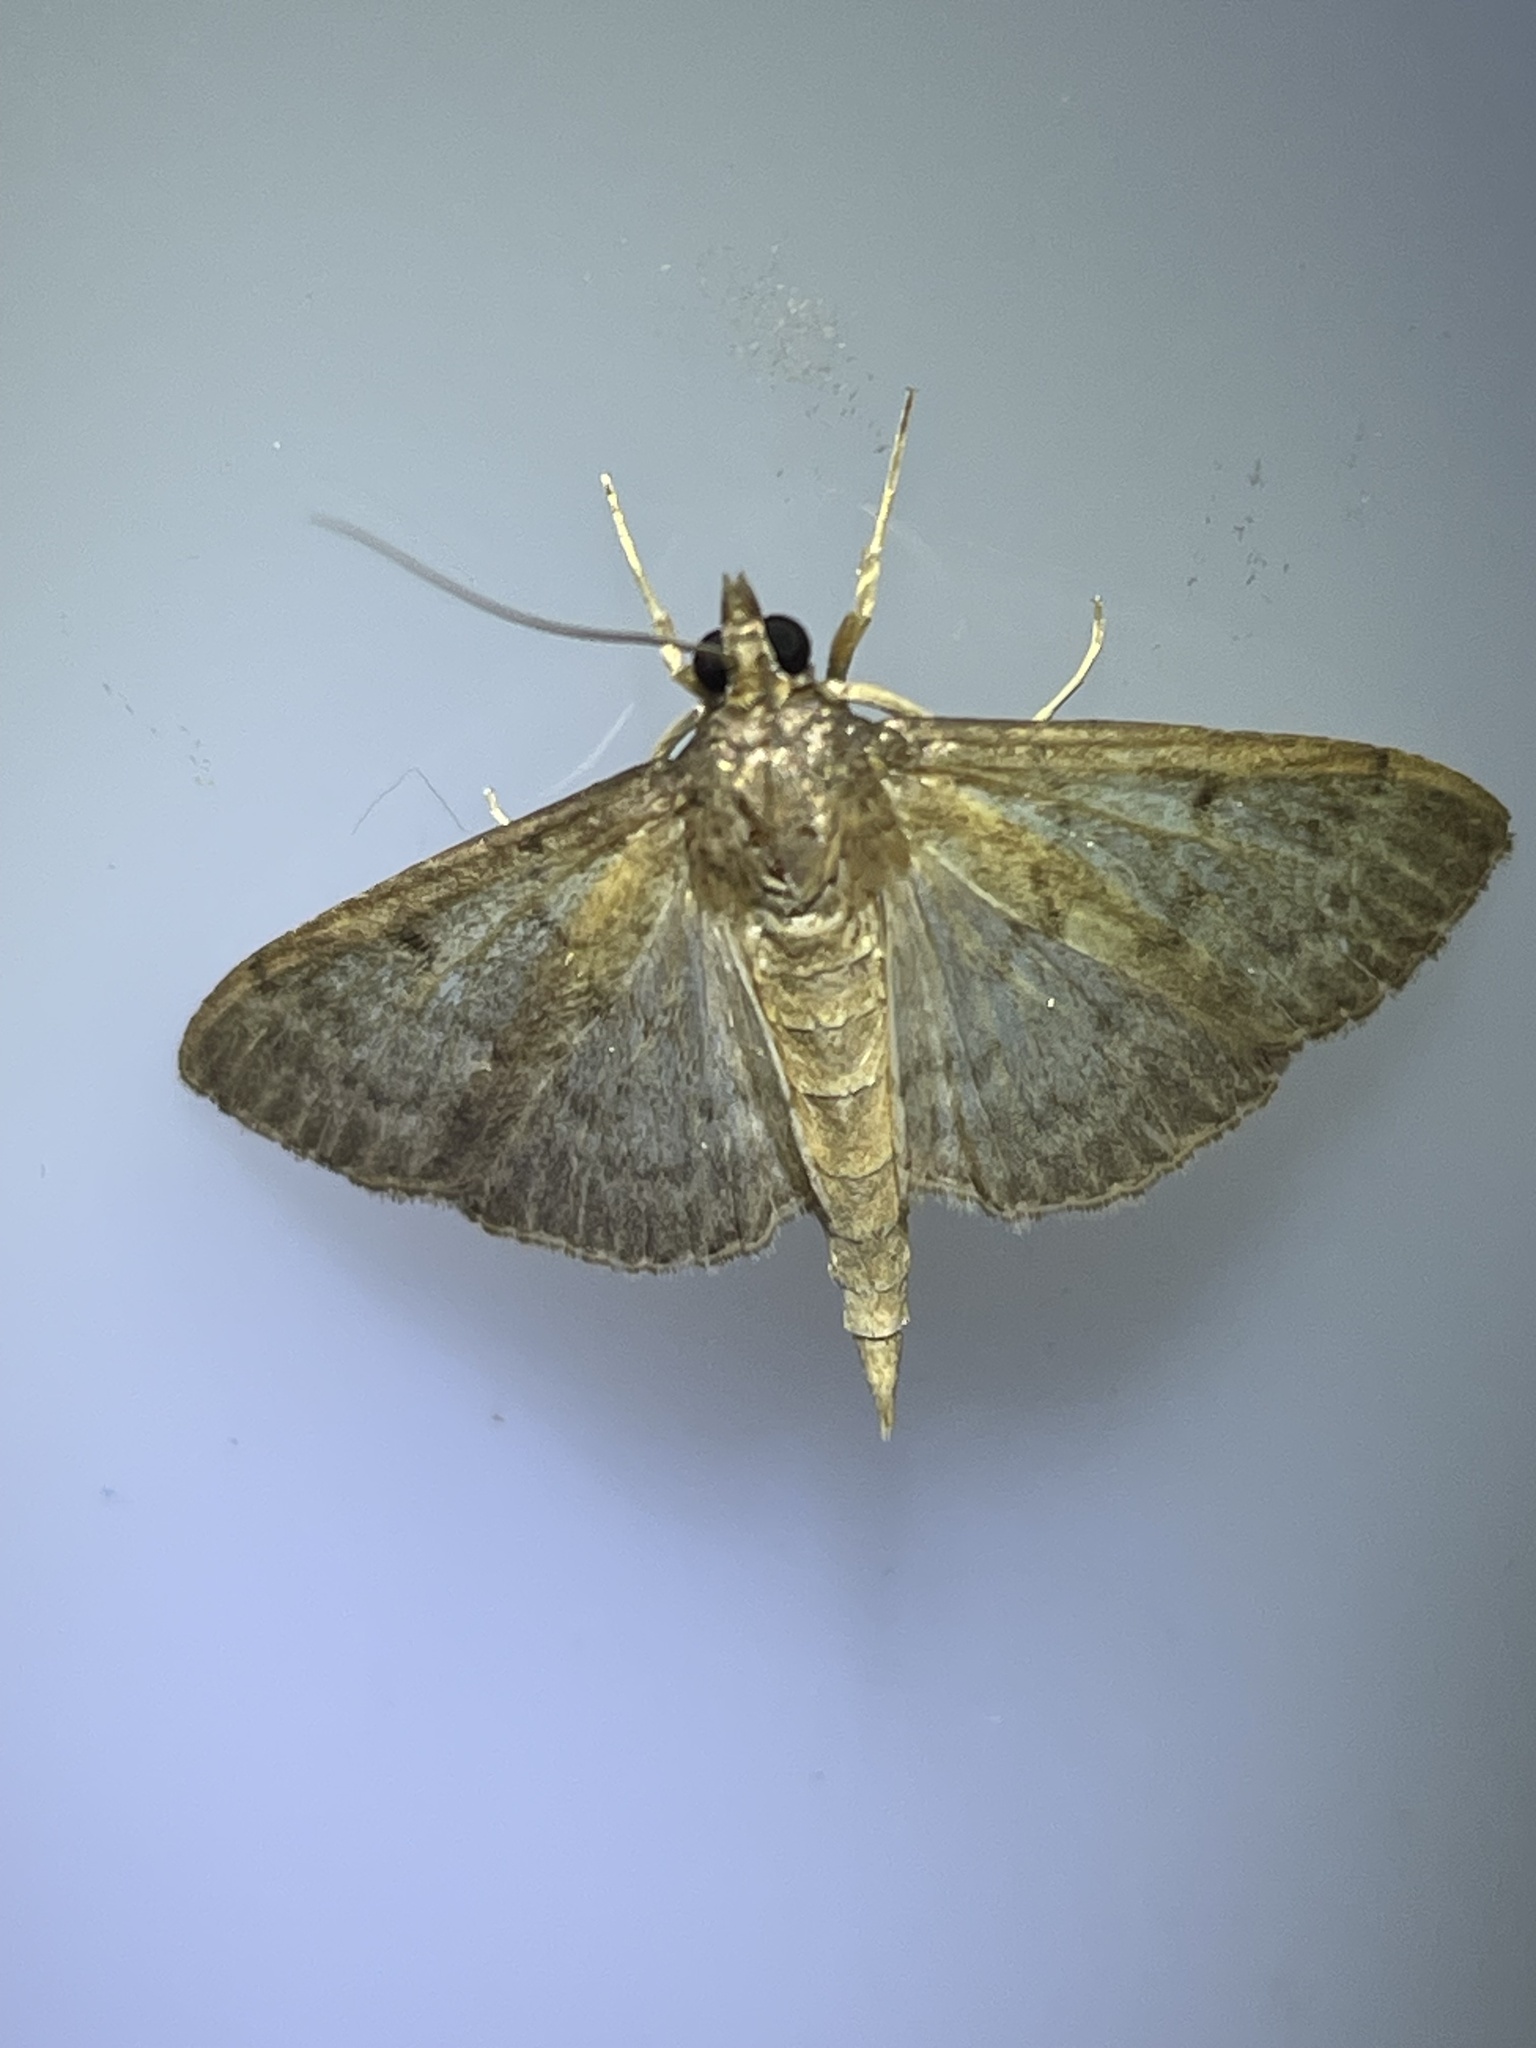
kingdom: Animalia
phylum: Arthropoda
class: Insecta
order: Lepidoptera
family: Crambidae
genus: Herpetogramma
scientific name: Herpetogramma licarsisalis
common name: Grass webworm
